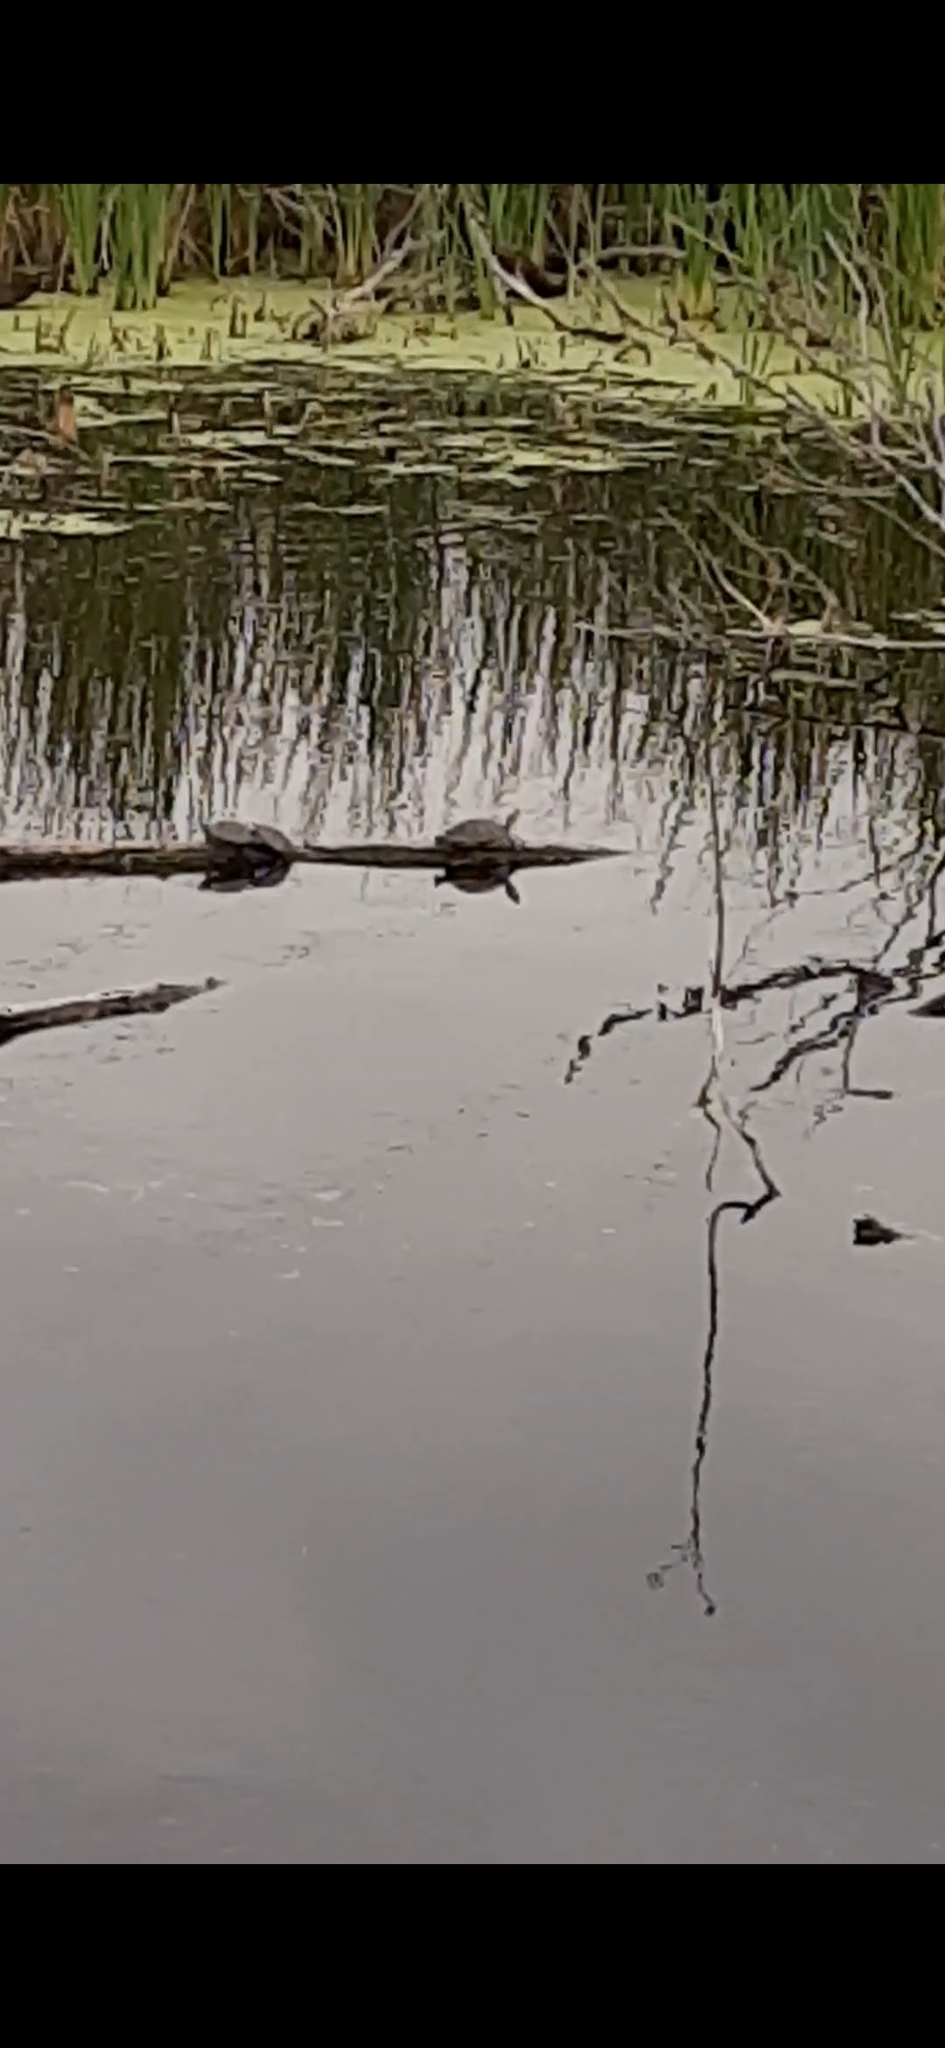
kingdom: Animalia
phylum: Chordata
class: Testudines
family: Emydidae
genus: Trachemys
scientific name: Trachemys scripta
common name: Slider
